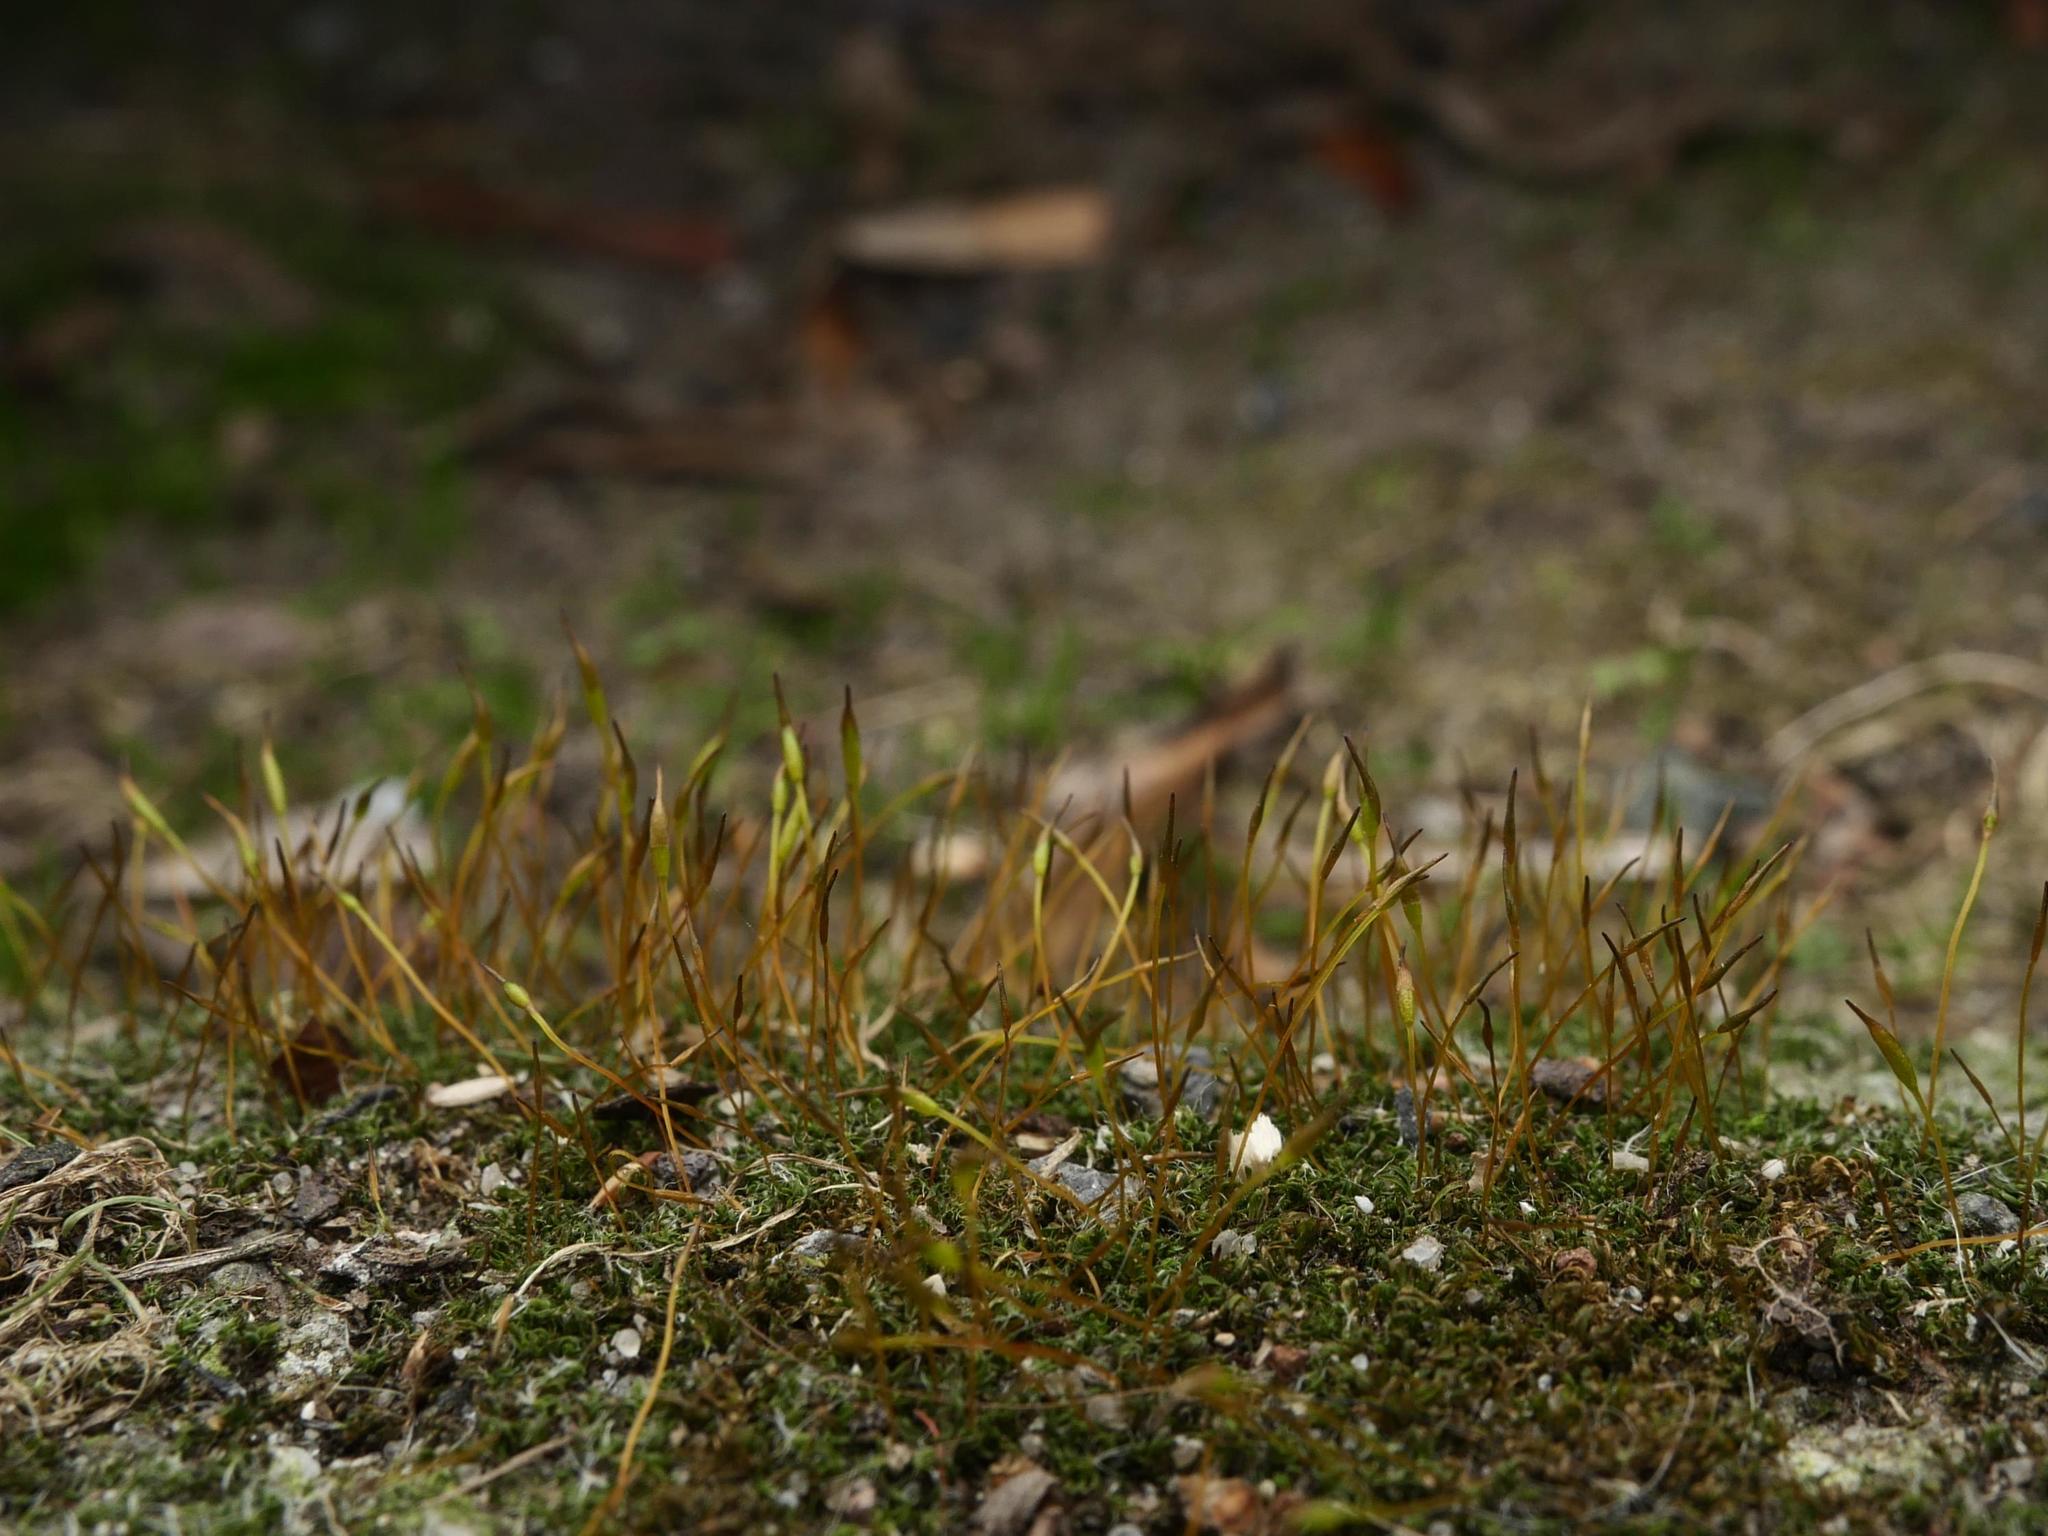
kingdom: Plantae
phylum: Bryophyta
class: Bryopsida
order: Pottiales
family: Pottiaceae
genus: Tortula
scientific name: Tortula muralis
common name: Wall screw-moss
